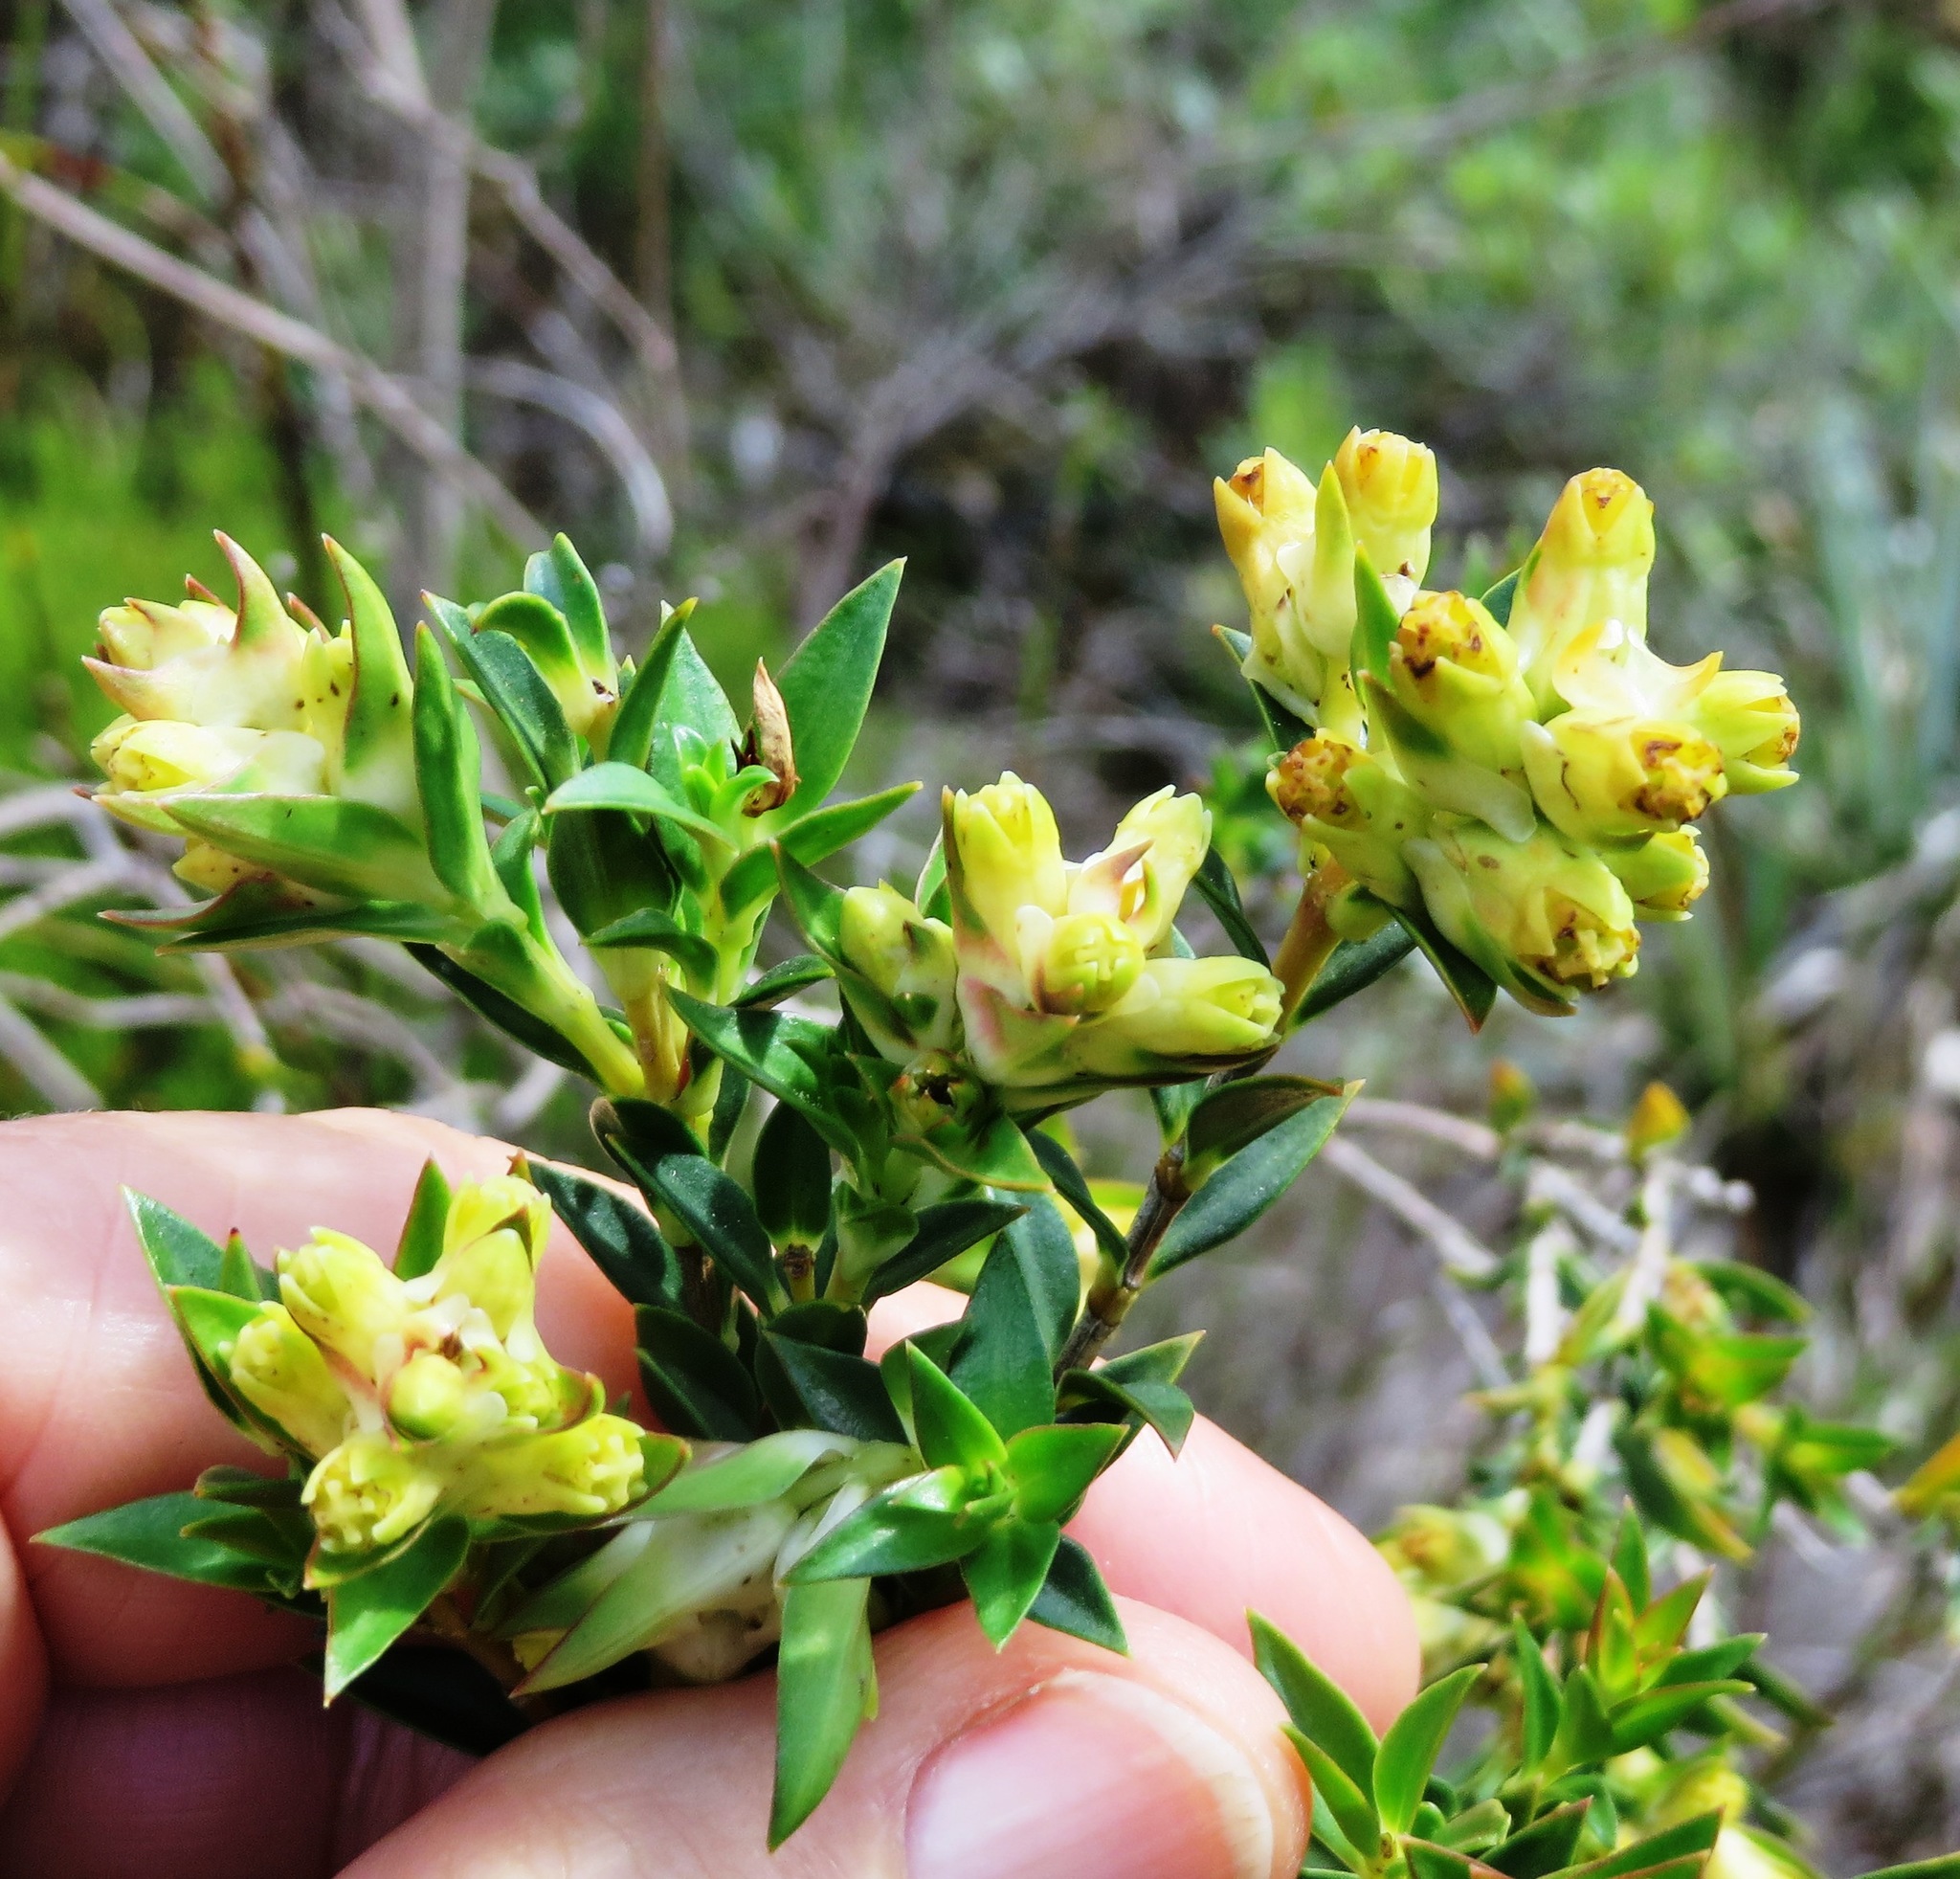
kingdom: Plantae
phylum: Tracheophyta
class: Magnoliopsida
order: Myrtales
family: Penaeaceae
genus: Penaea
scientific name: Penaea cneorum
